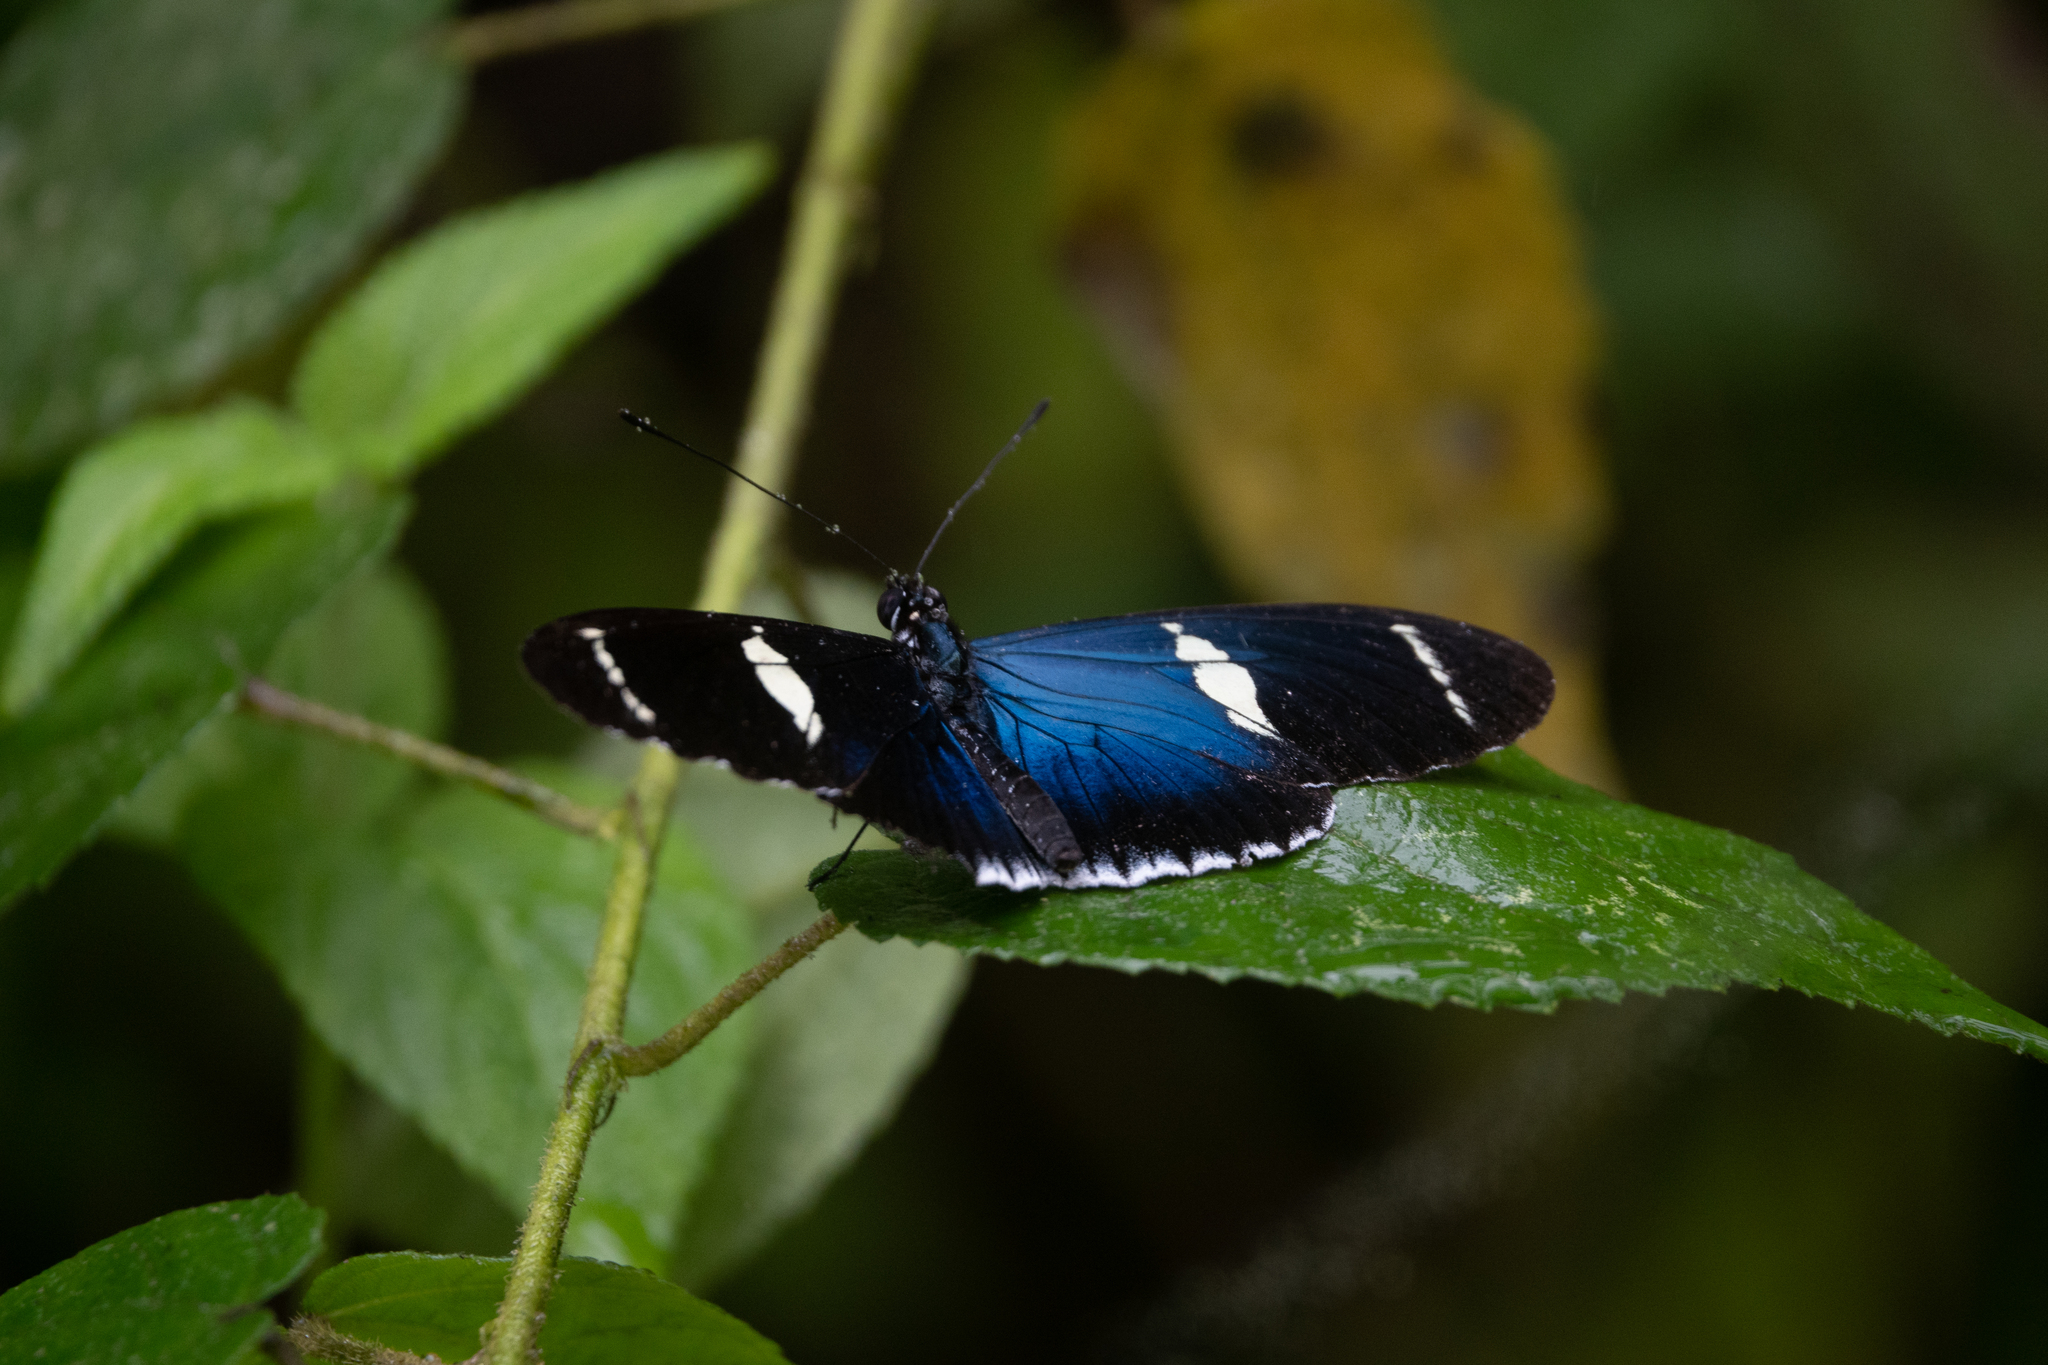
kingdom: Animalia
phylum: Arthropoda
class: Insecta
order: Lepidoptera
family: Nymphalidae
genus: Heliconius
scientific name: Heliconius sara
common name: Sara longwing
